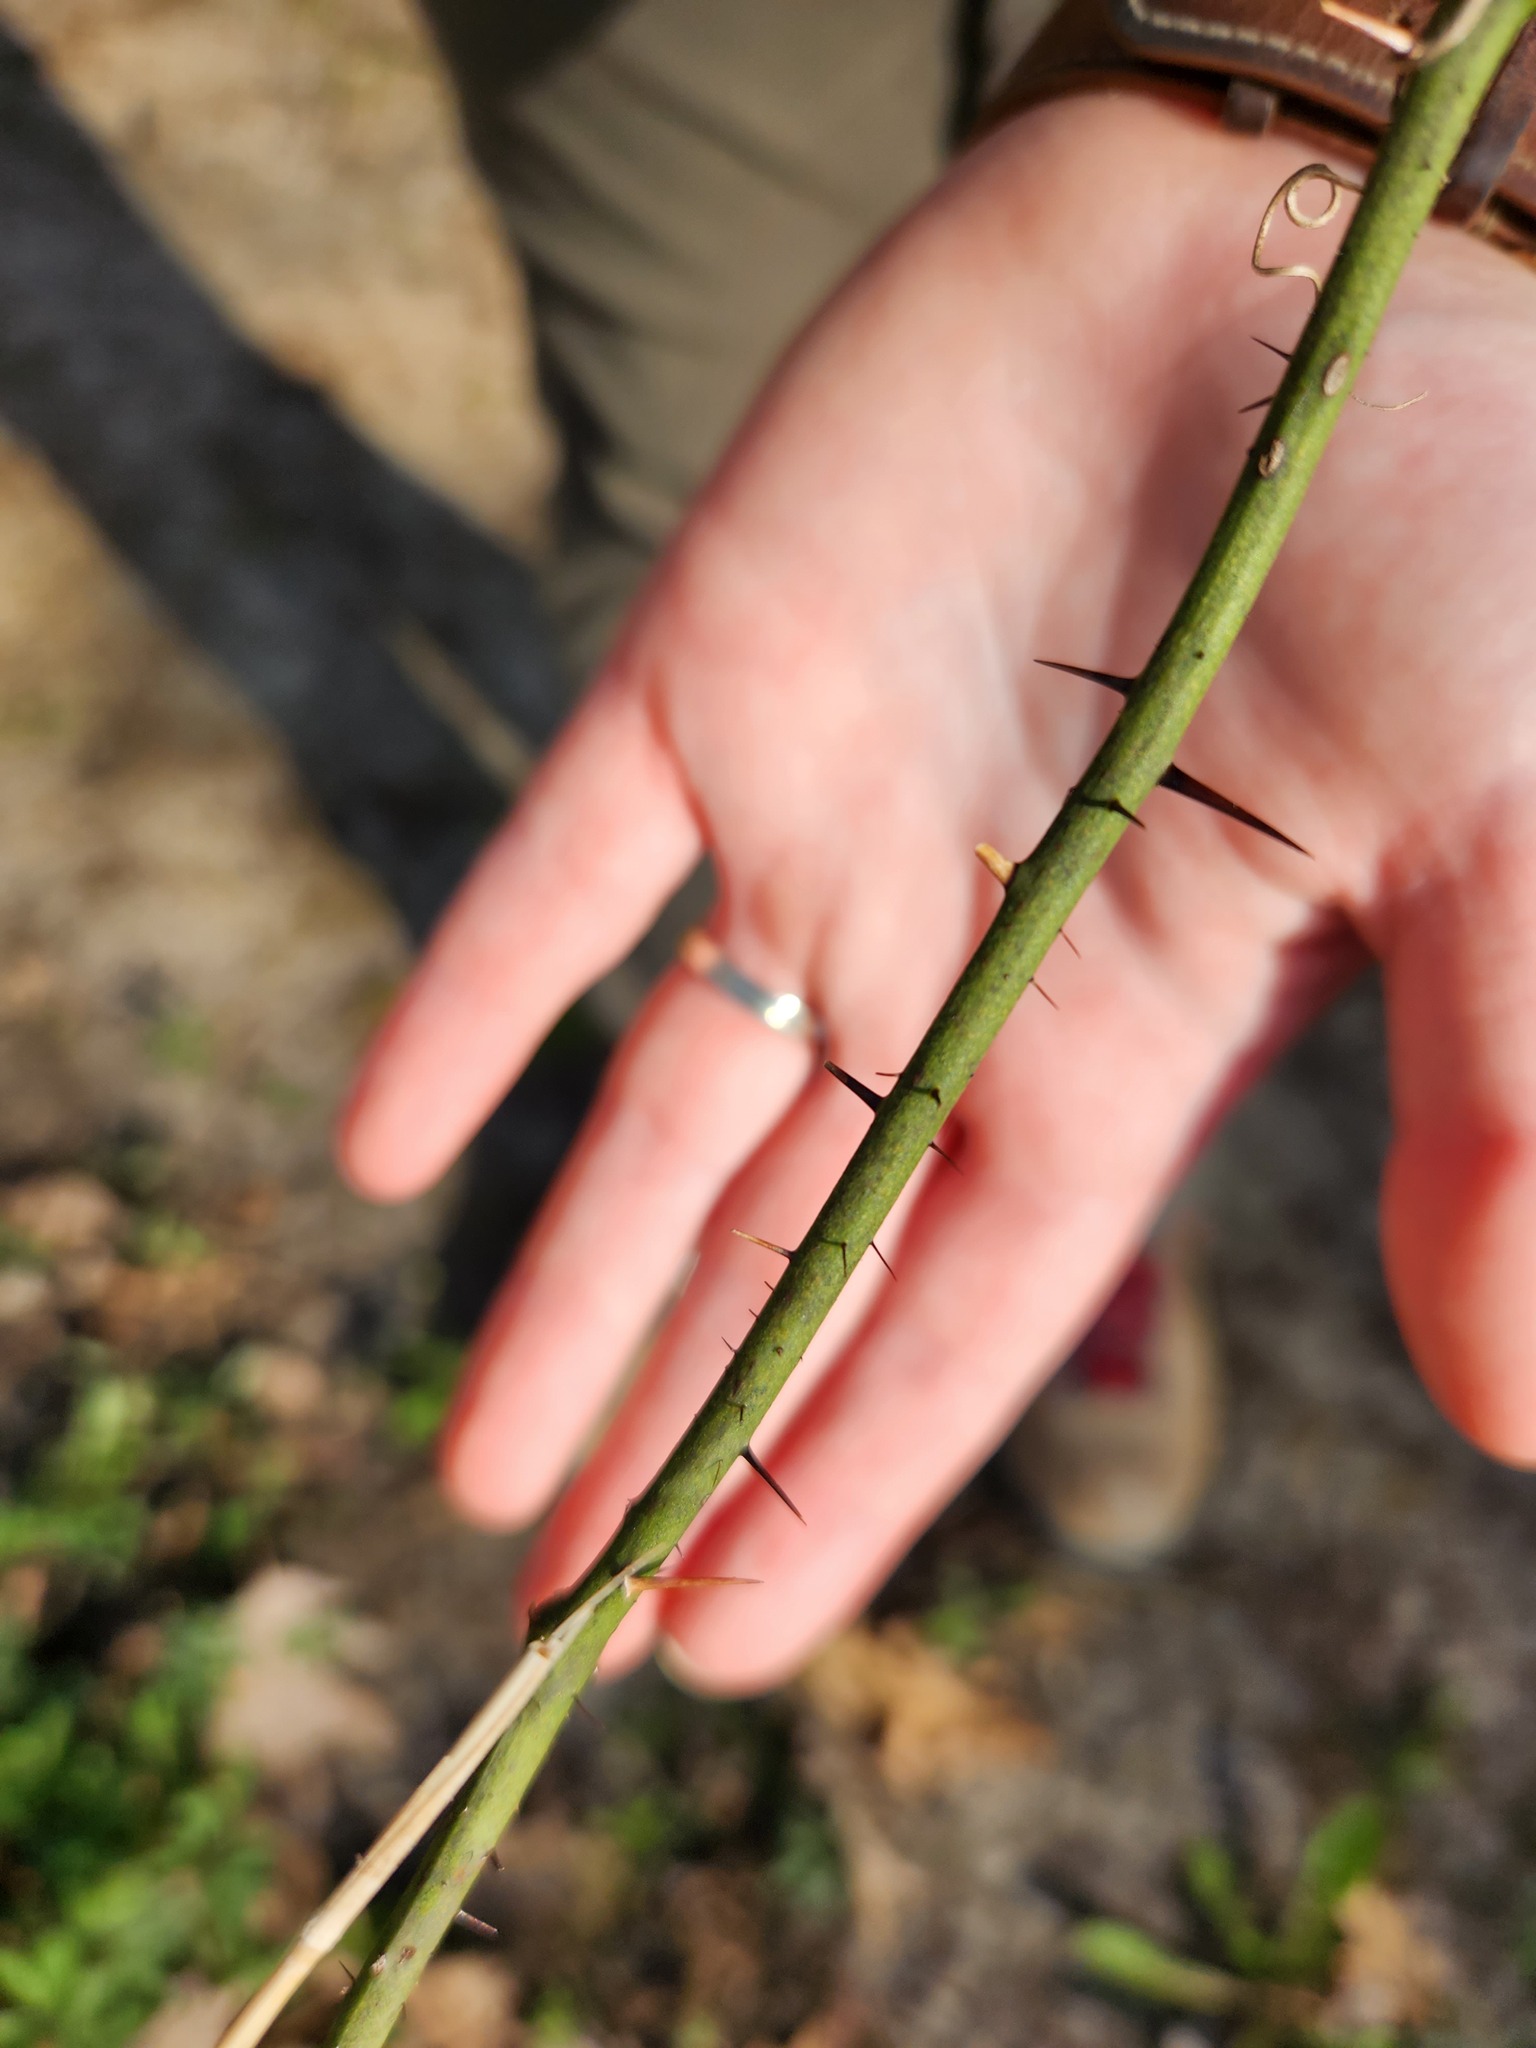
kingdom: Plantae
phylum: Tracheophyta
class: Liliopsida
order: Liliales
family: Smilacaceae
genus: Smilax
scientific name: Smilax tamnoides
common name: Hellfetter
